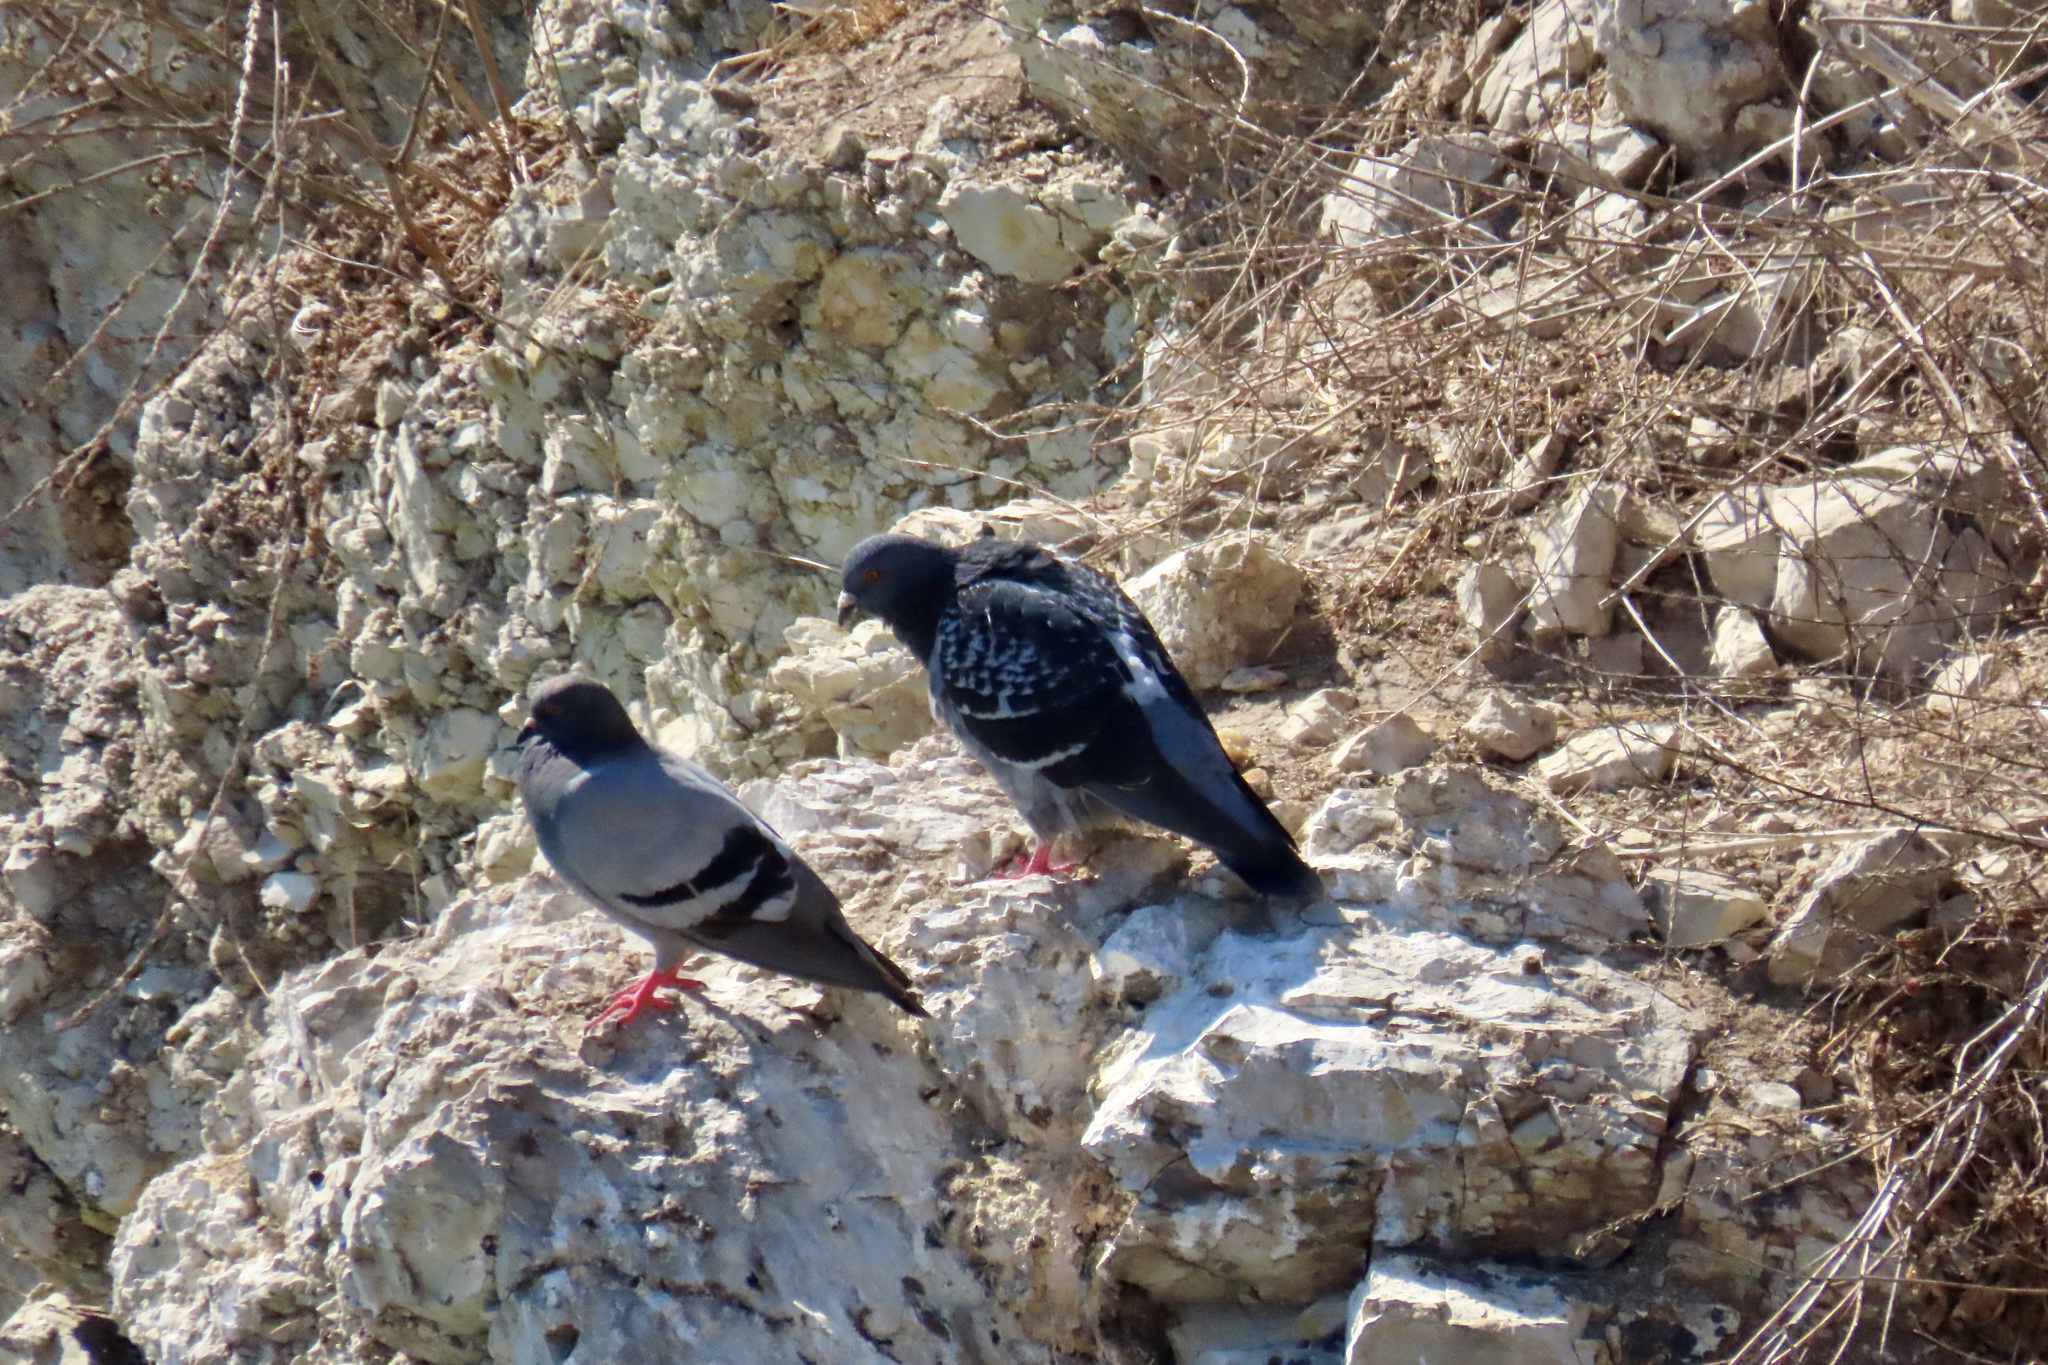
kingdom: Animalia
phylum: Chordata
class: Aves
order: Columbiformes
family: Columbidae
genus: Columba
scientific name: Columba livia
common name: Rock pigeon
